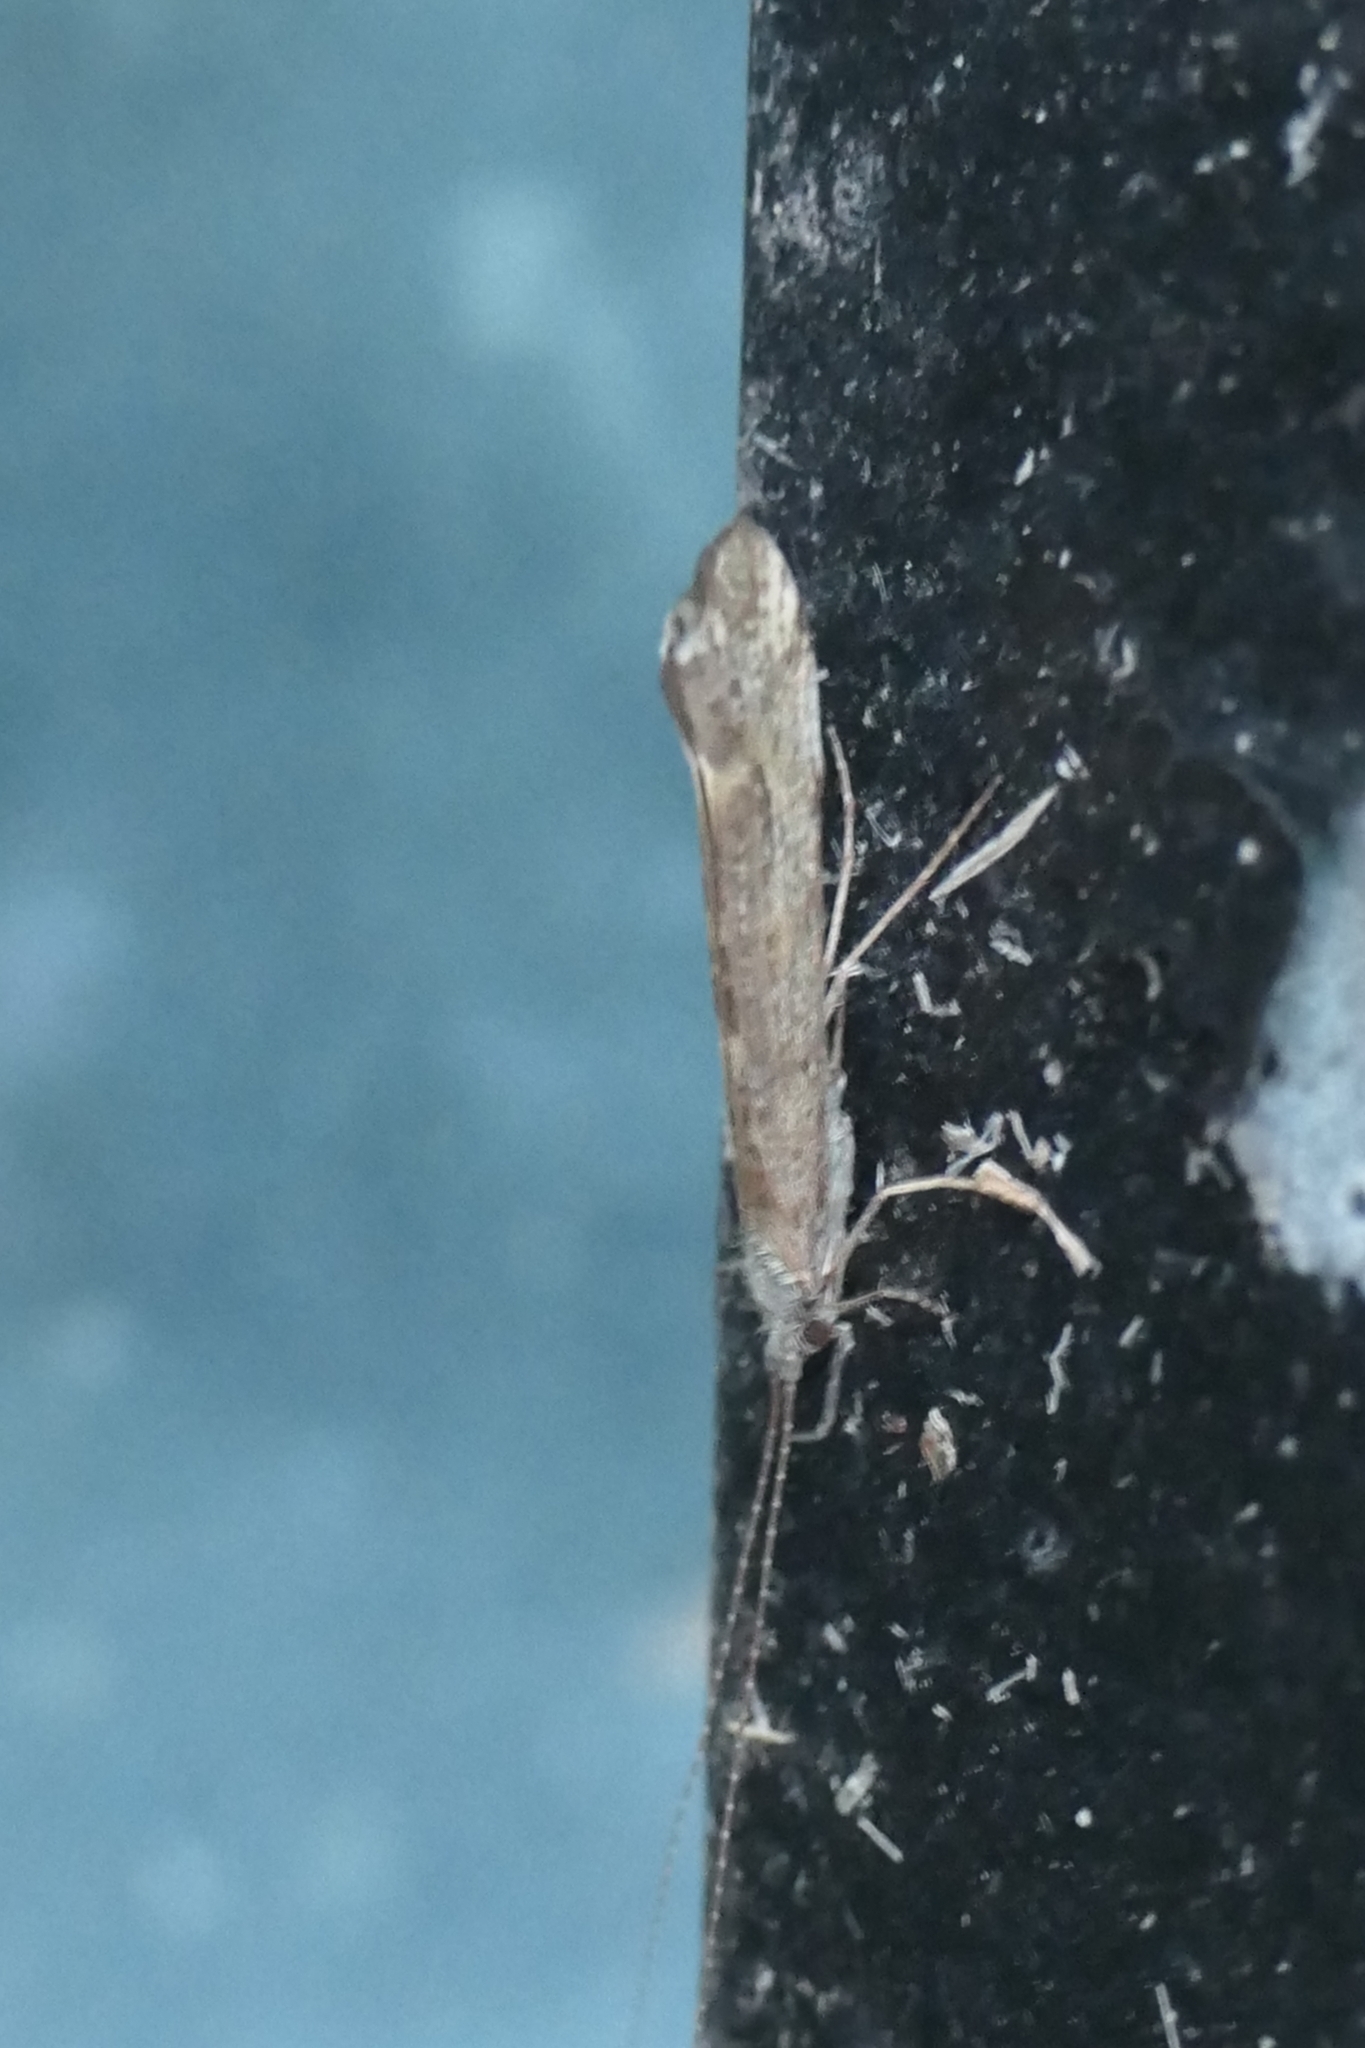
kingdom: Animalia
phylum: Arthropoda
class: Insecta
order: Trichoptera
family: Leptoceridae
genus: Hudsonema
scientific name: Hudsonema amabile
